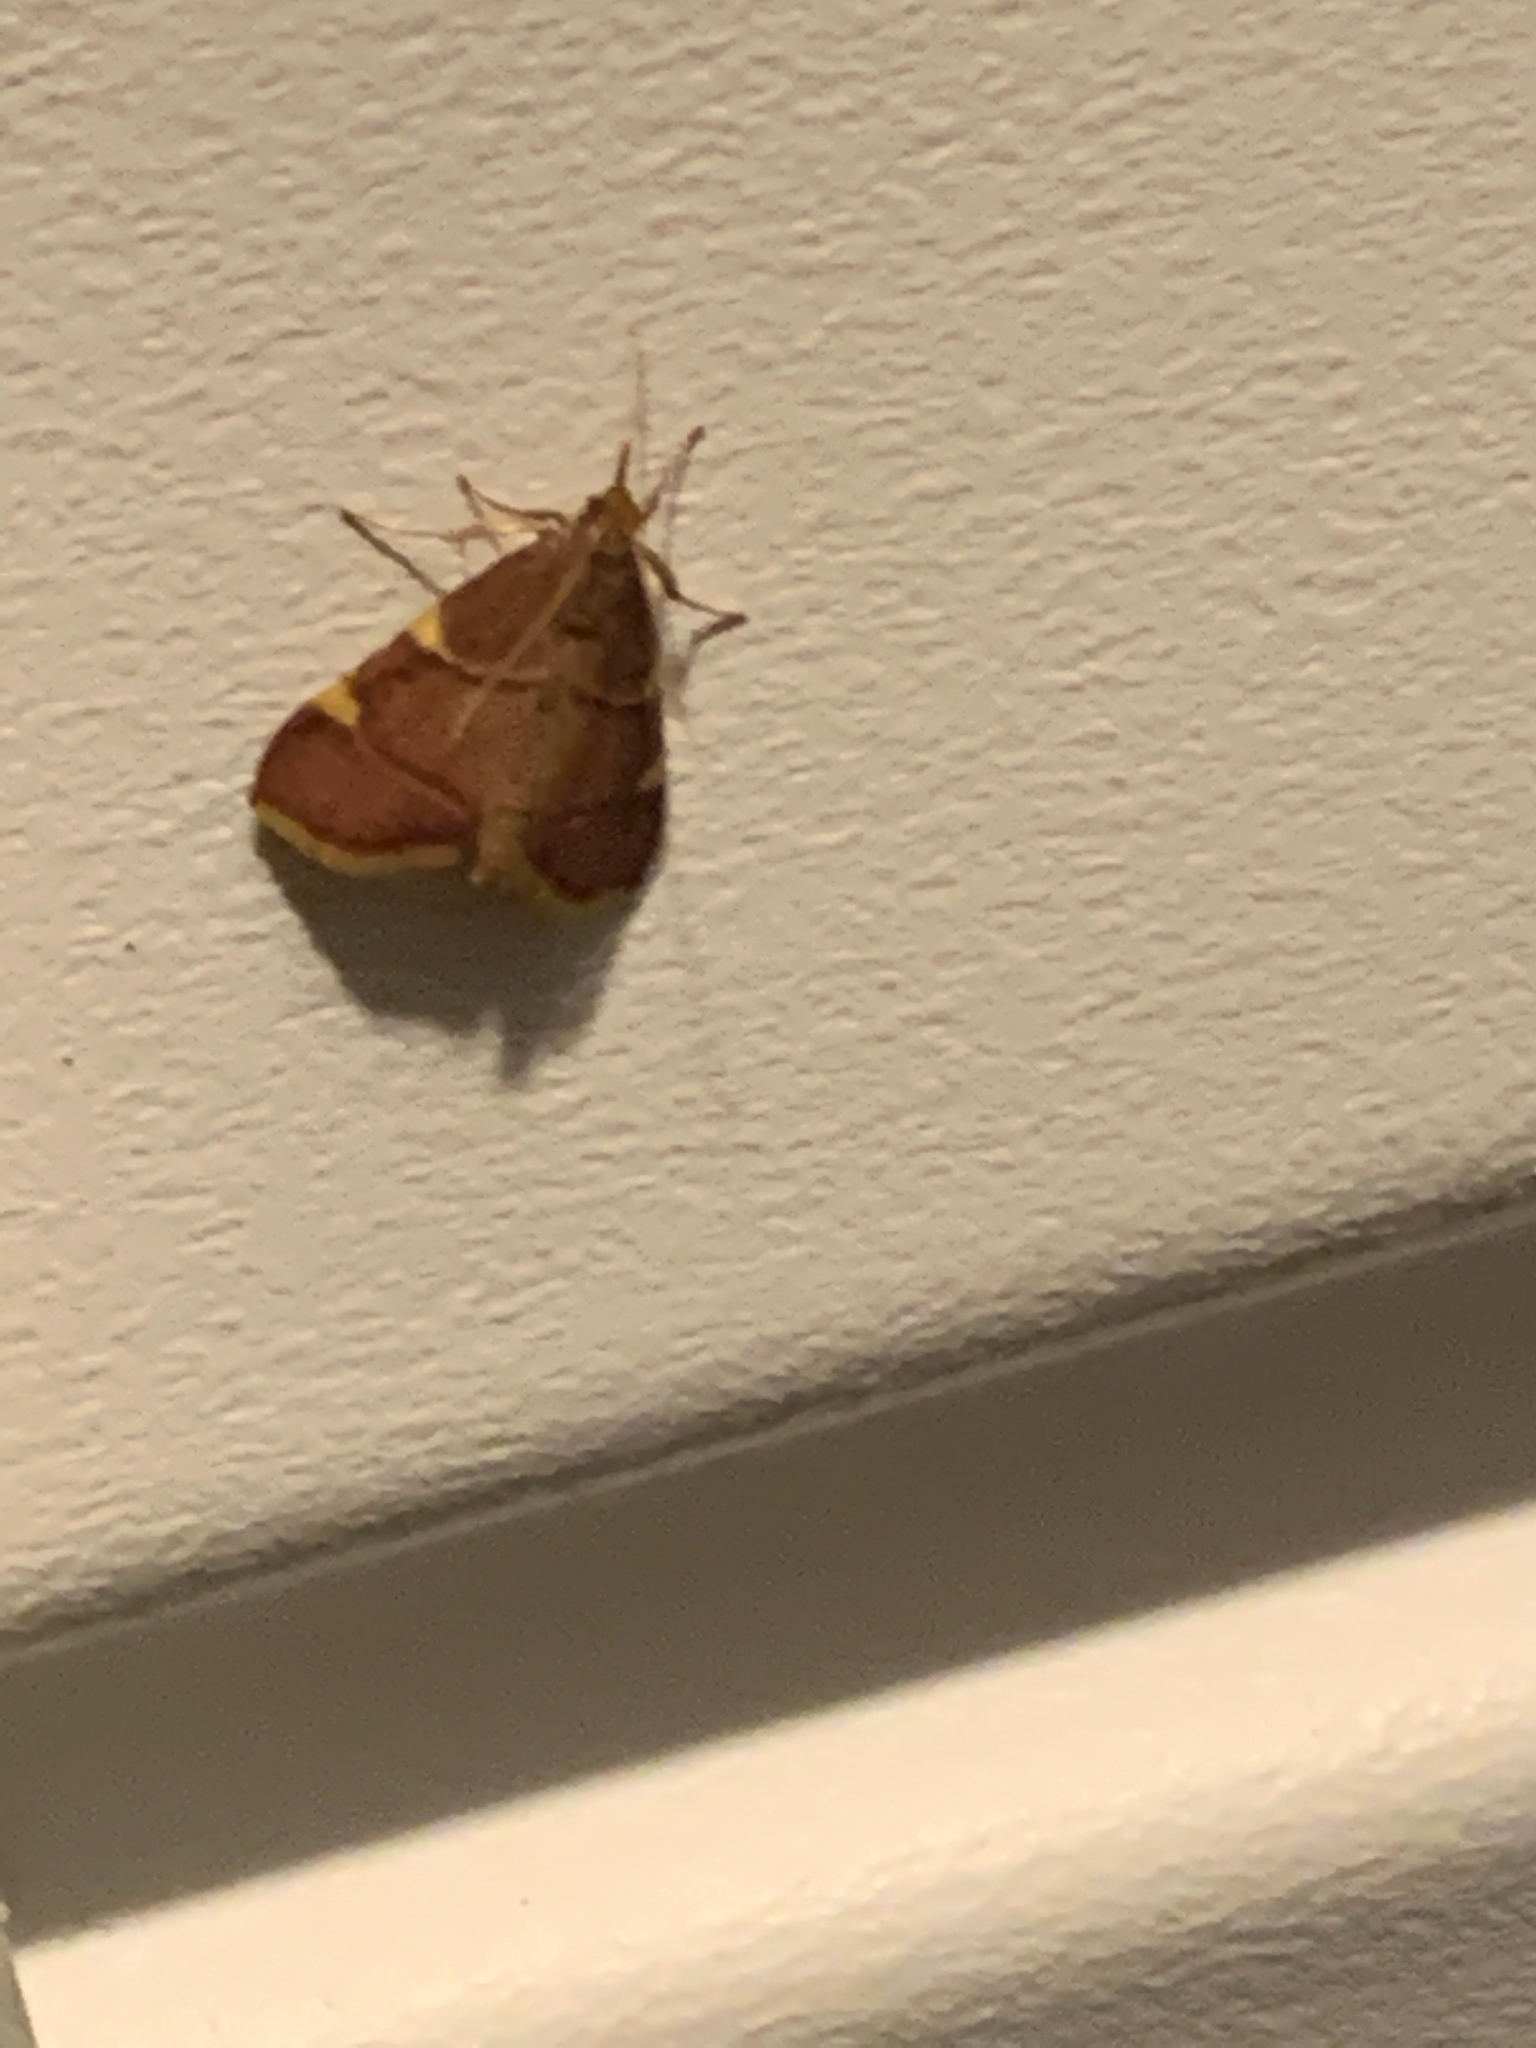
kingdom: Animalia
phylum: Arthropoda
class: Insecta
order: Lepidoptera
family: Pyralidae
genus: Hypsopygia
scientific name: Hypsopygia olinalis
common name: Yellow-fringed dolichomia moth
